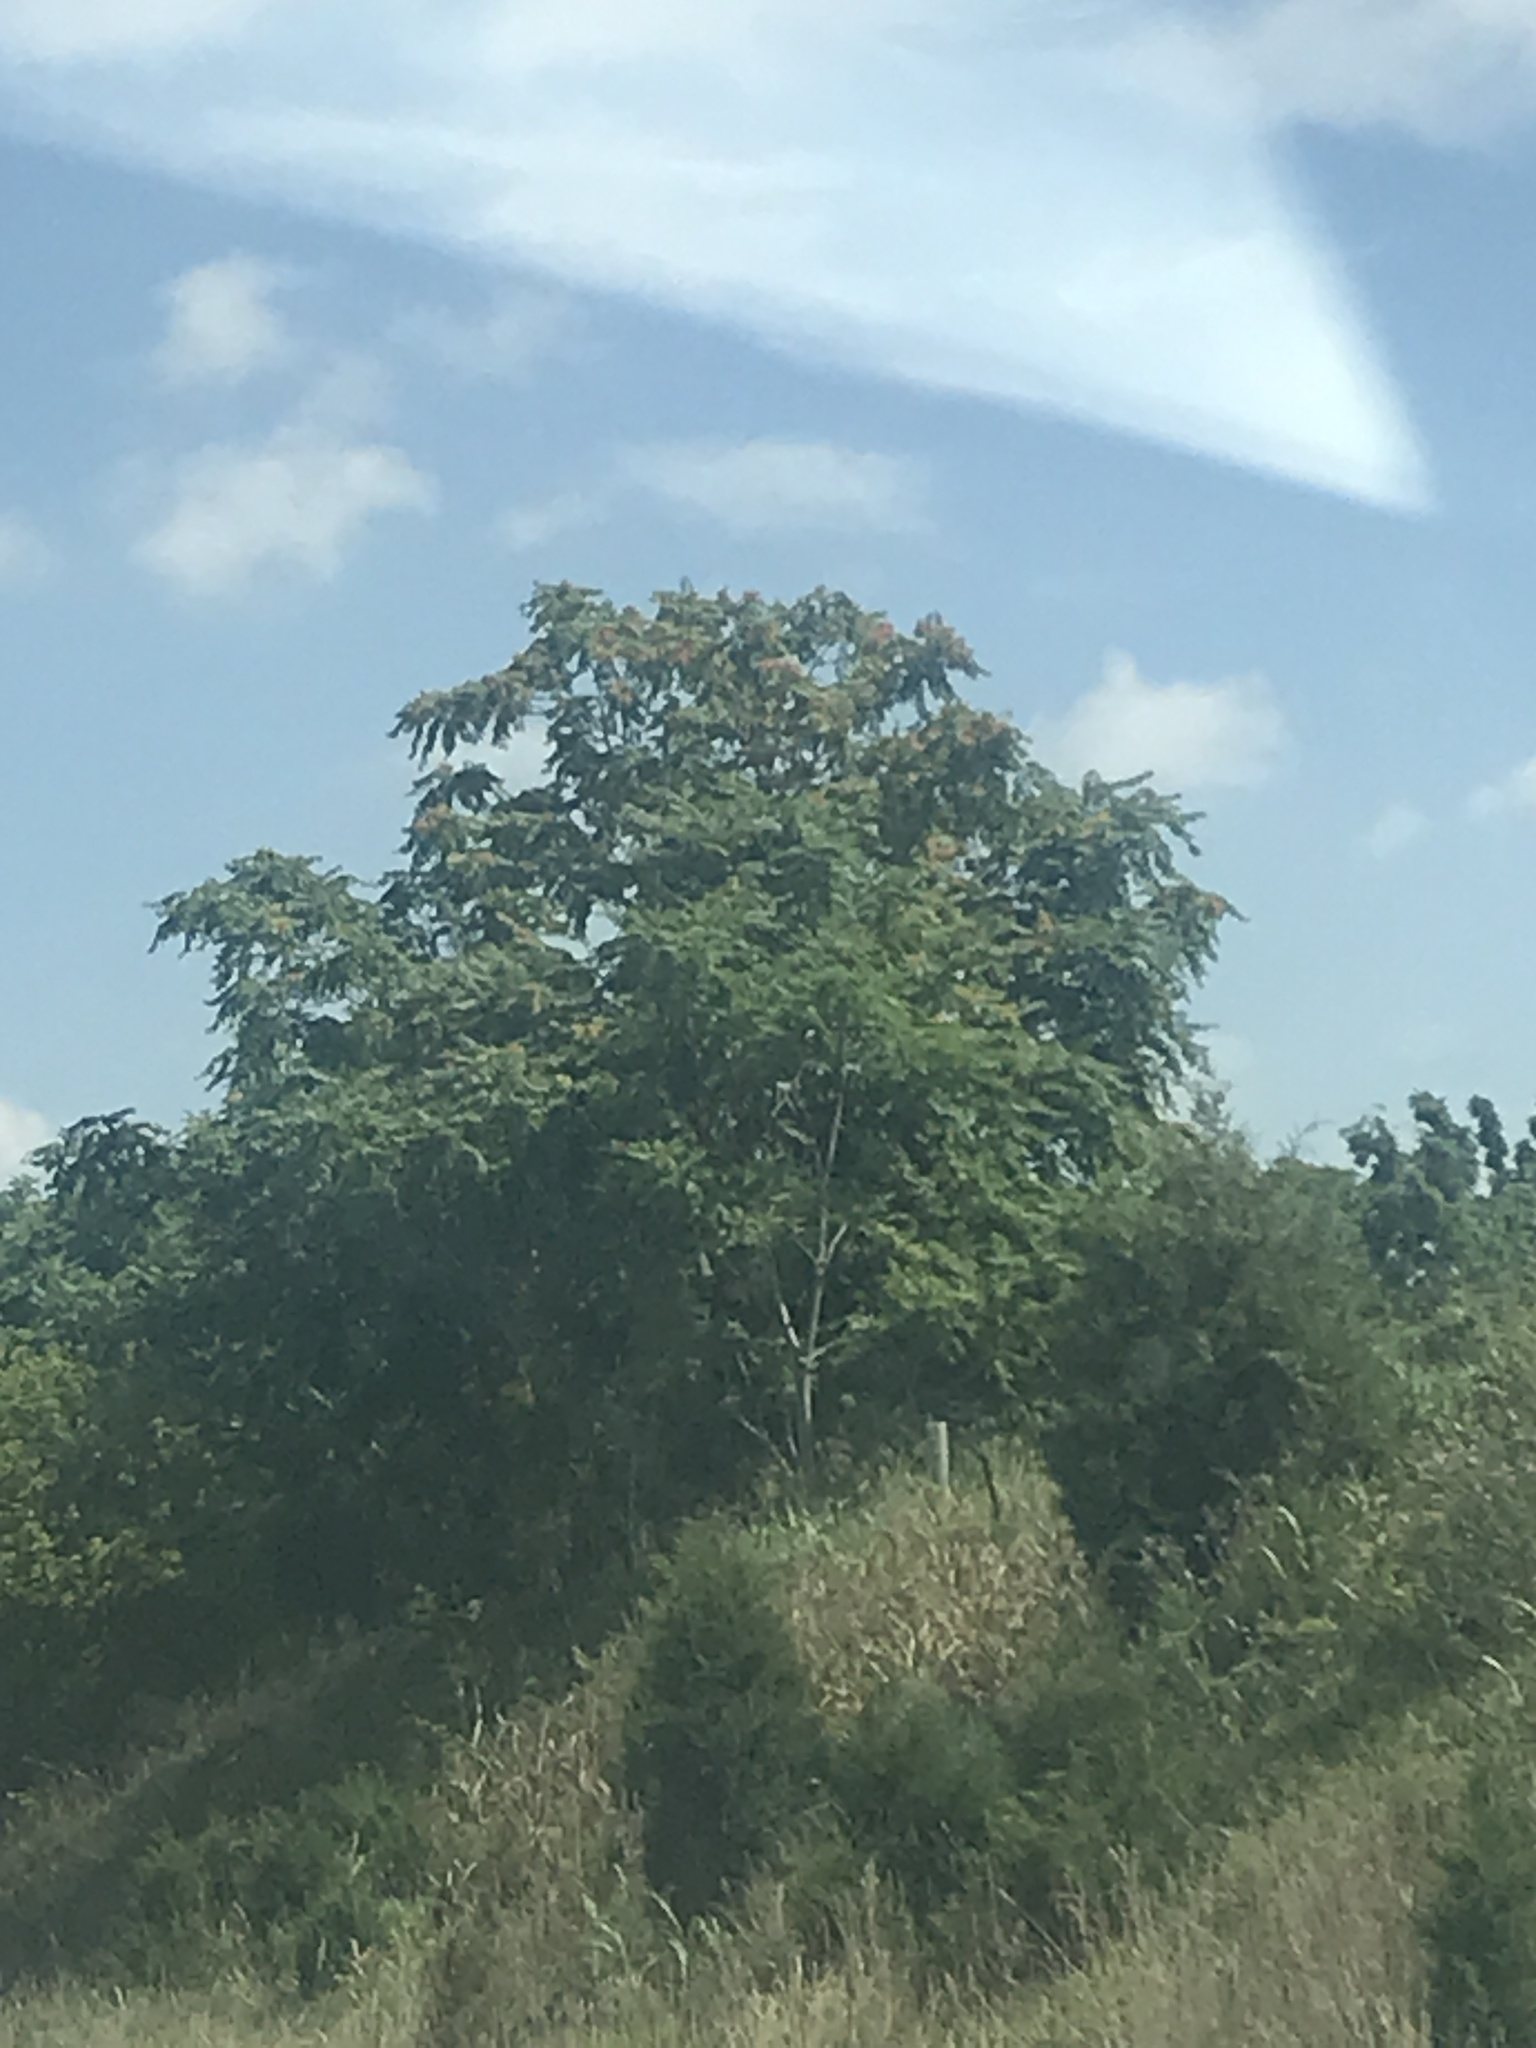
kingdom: Plantae
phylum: Tracheophyta
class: Magnoliopsida
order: Sapindales
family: Simaroubaceae
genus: Ailanthus
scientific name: Ailanthus altissima
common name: Tree-of-heaven
